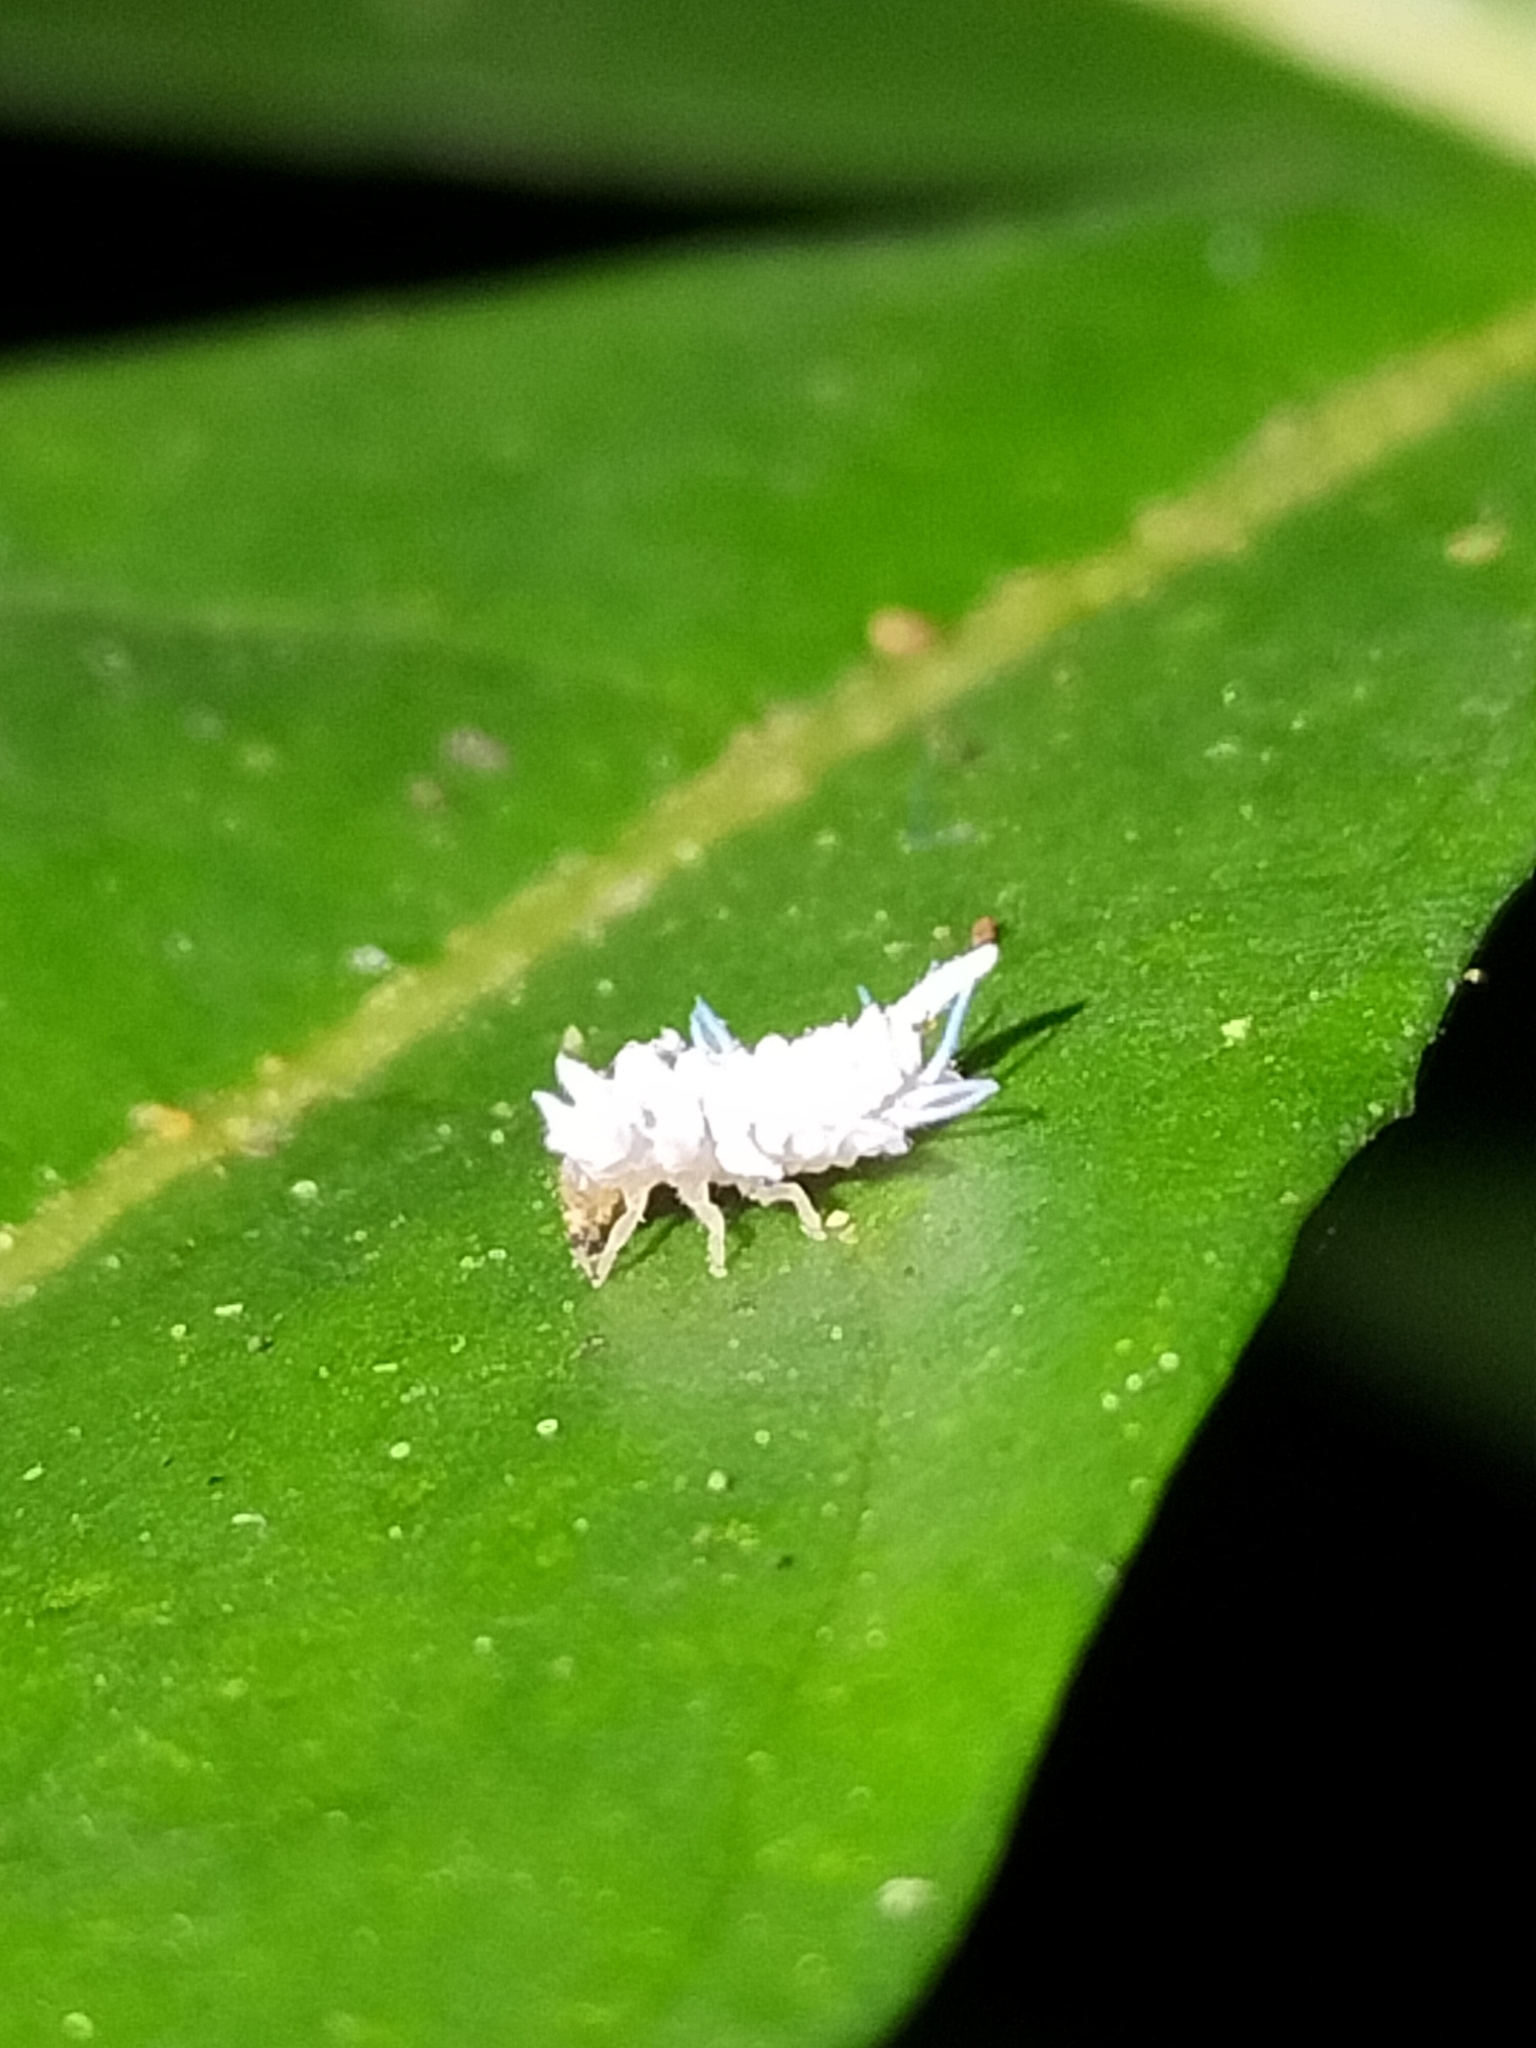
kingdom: Animalia
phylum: Arthropoda
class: Insecta
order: Coleoptera
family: Coccinellidae
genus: Cryptolaemus
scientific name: Cryptolaemus montrouzieri
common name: Mealybug destroyer
